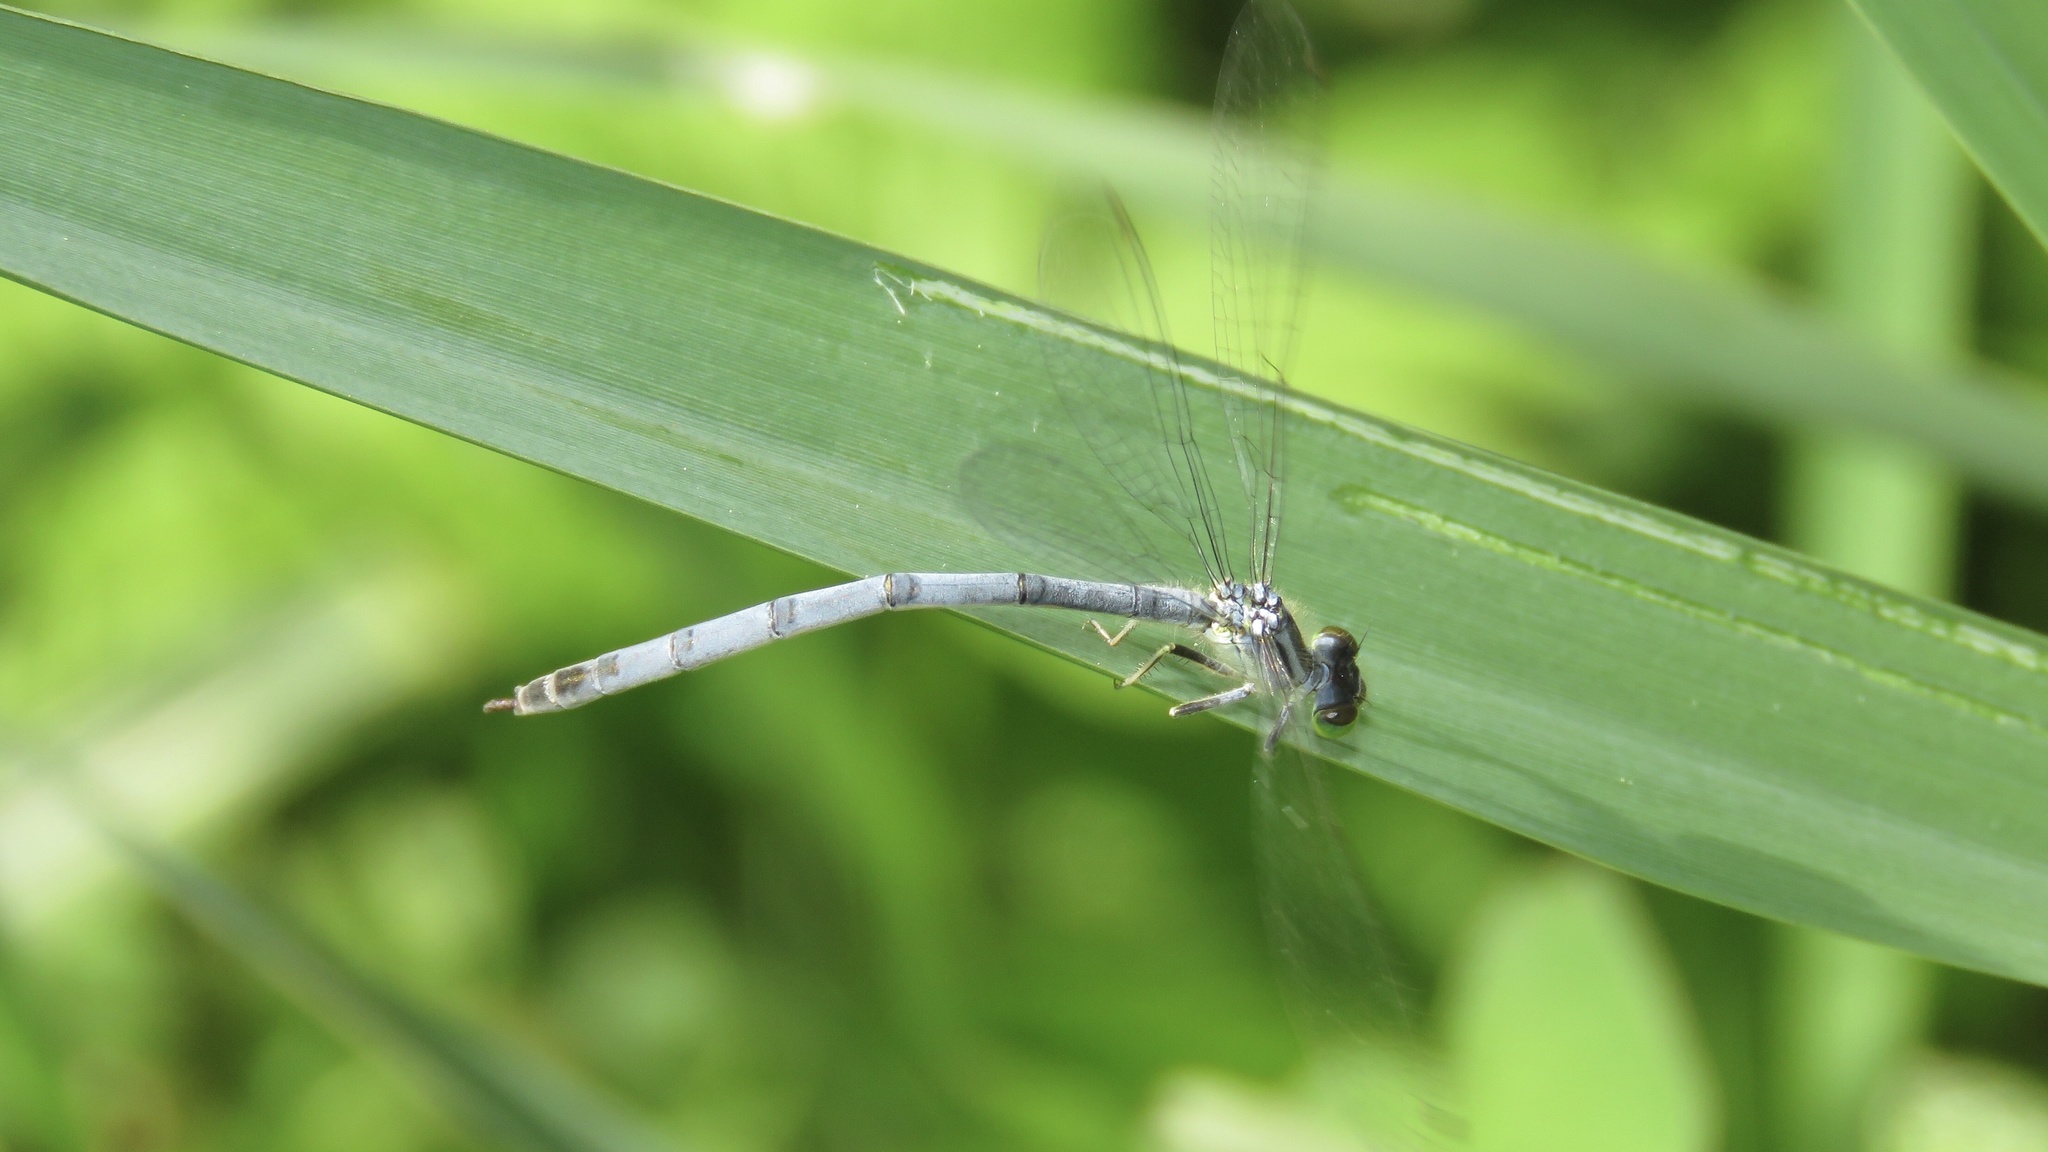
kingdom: Animalia
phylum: Arthropoda
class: Insecta
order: Odonata
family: Coenagrionidae
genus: Ischnura
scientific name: Ischnura verticalis
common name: Eastern forktail
